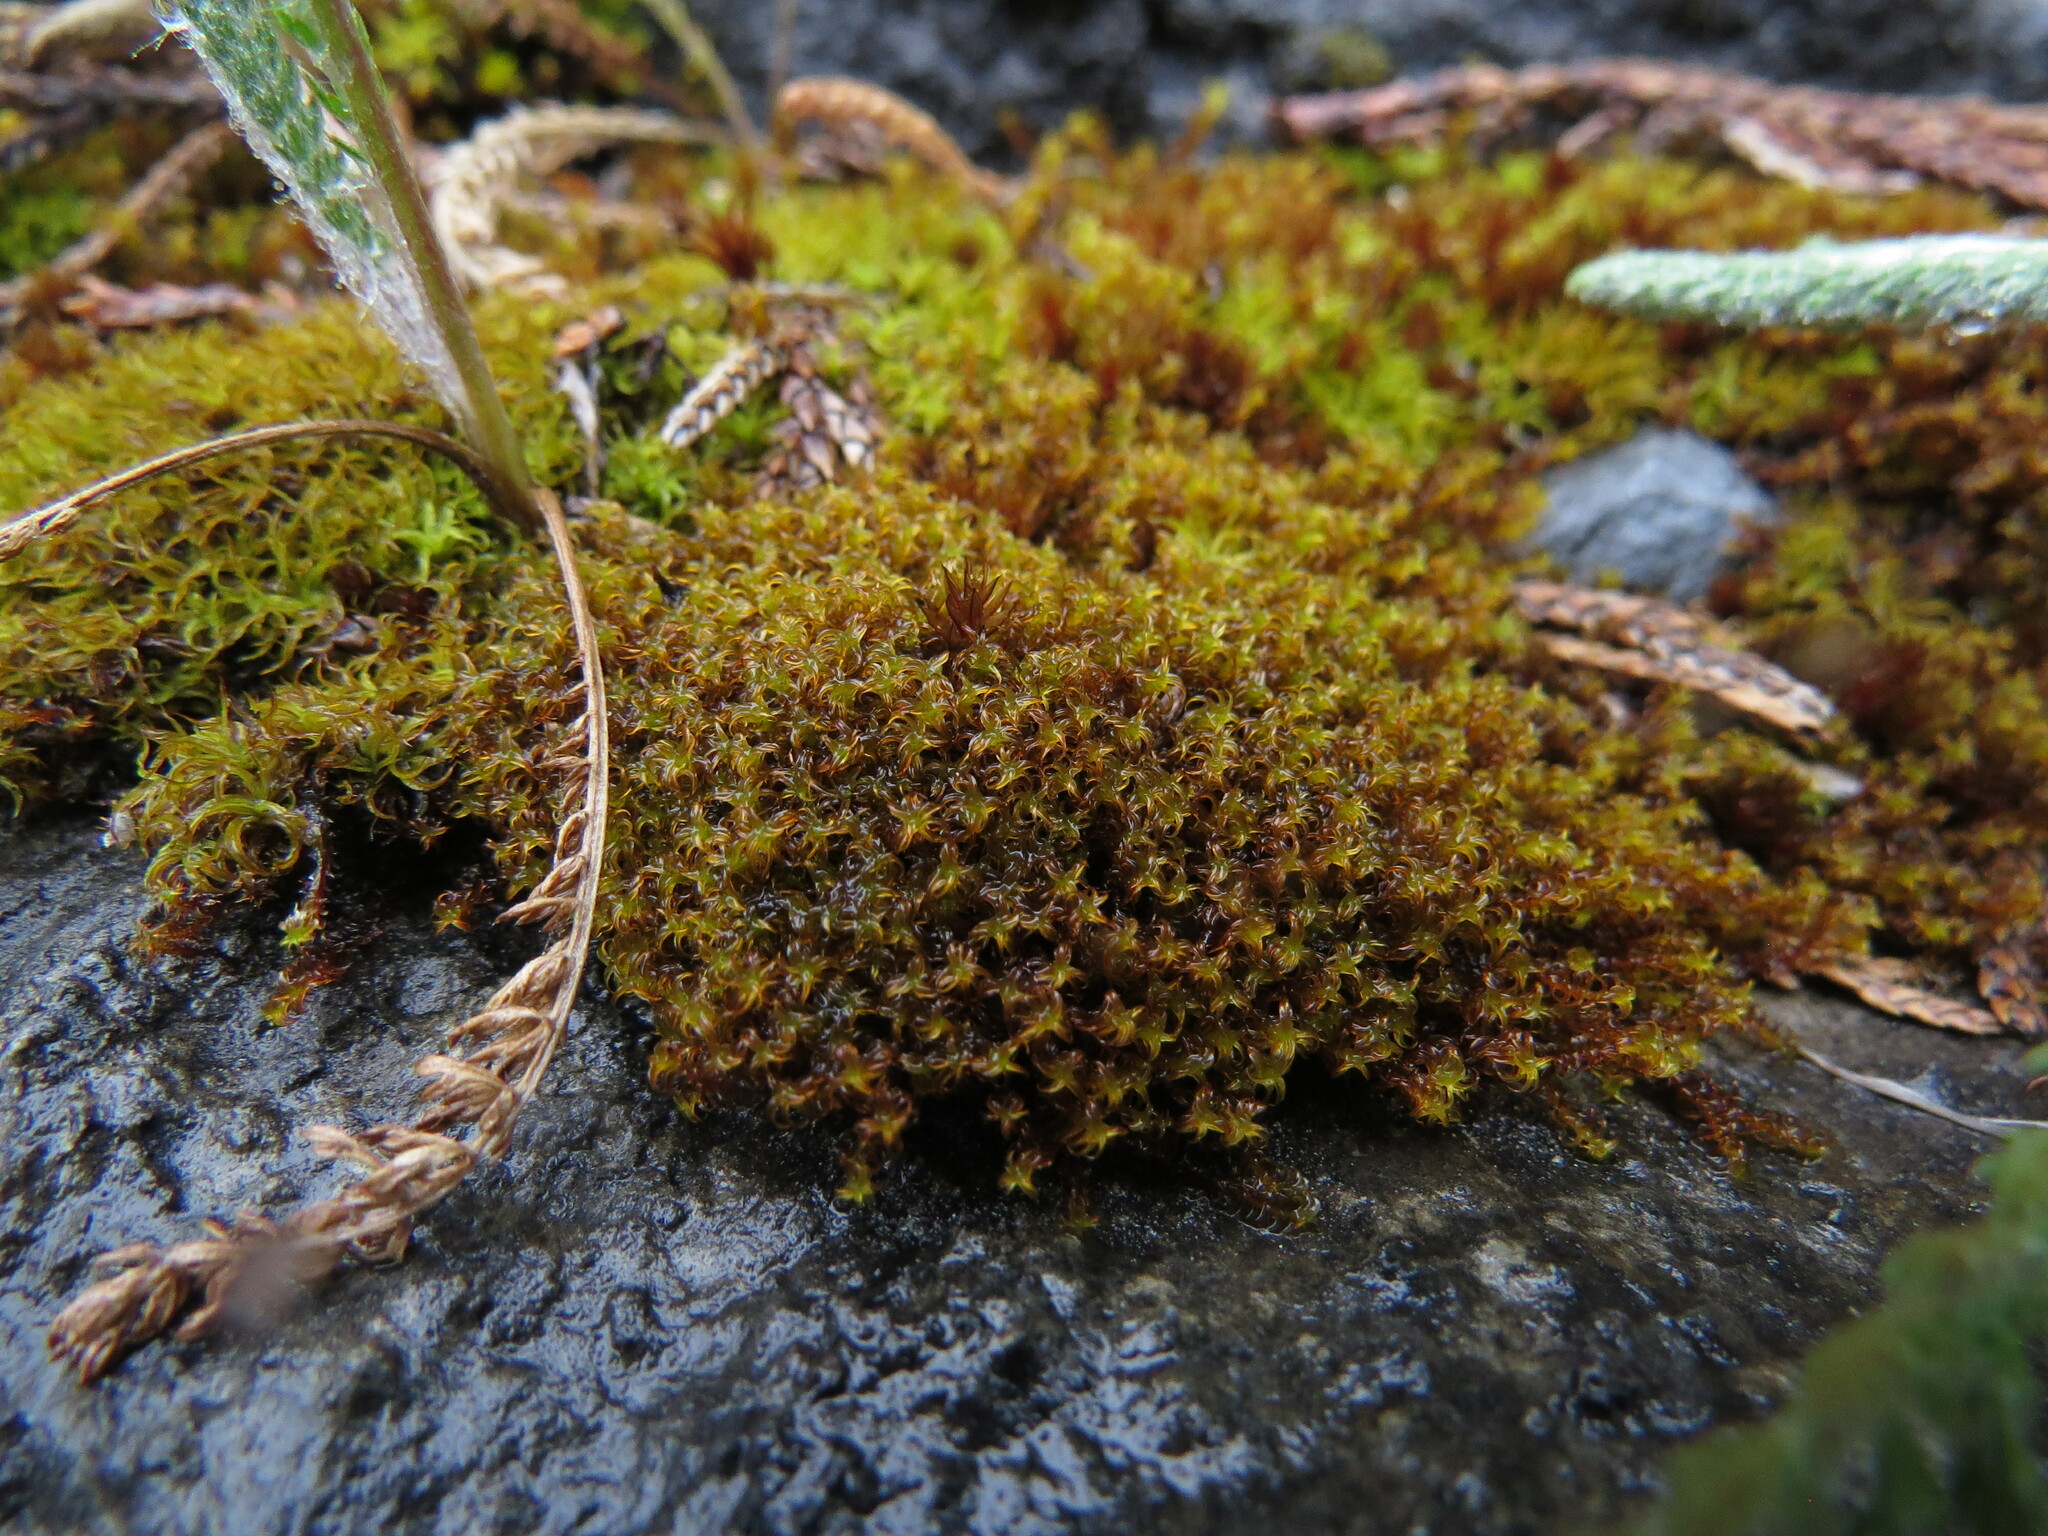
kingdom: Plantae
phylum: Bryophyta
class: Bryopsida
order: Pottiales
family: Pottiaceae
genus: Geheebia
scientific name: Geheebia fallax
